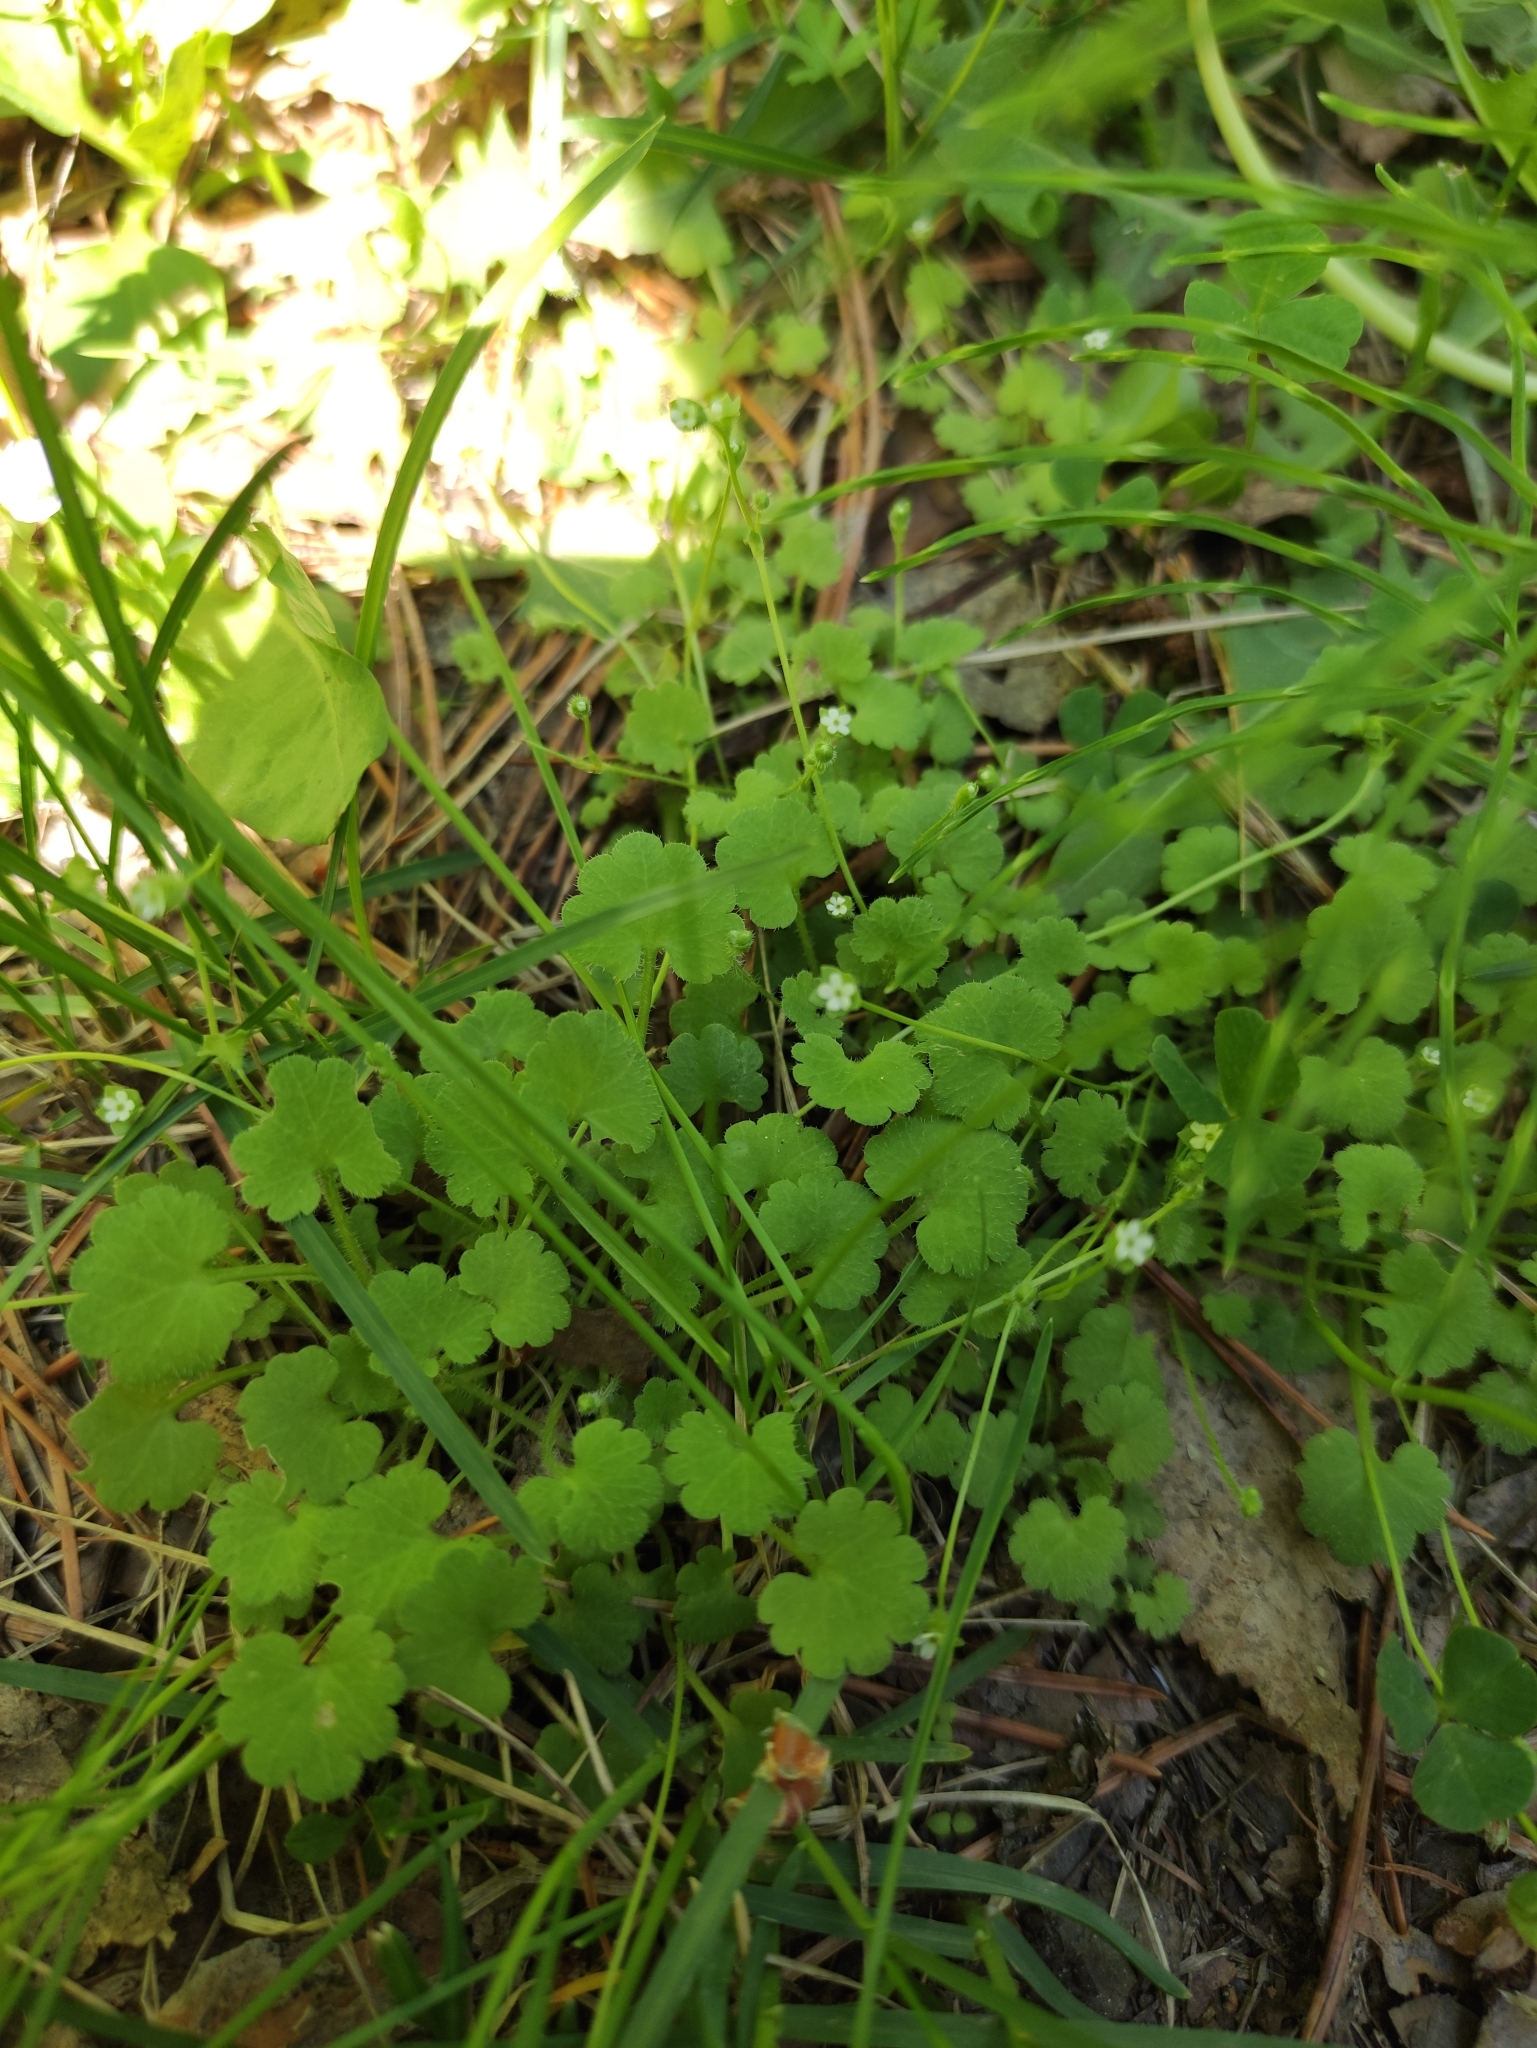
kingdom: Plantae
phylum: Tracheophyta
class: Magnoliopsida
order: Ericales
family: Primulaceae
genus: Androsace
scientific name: Androsace gmelinii
